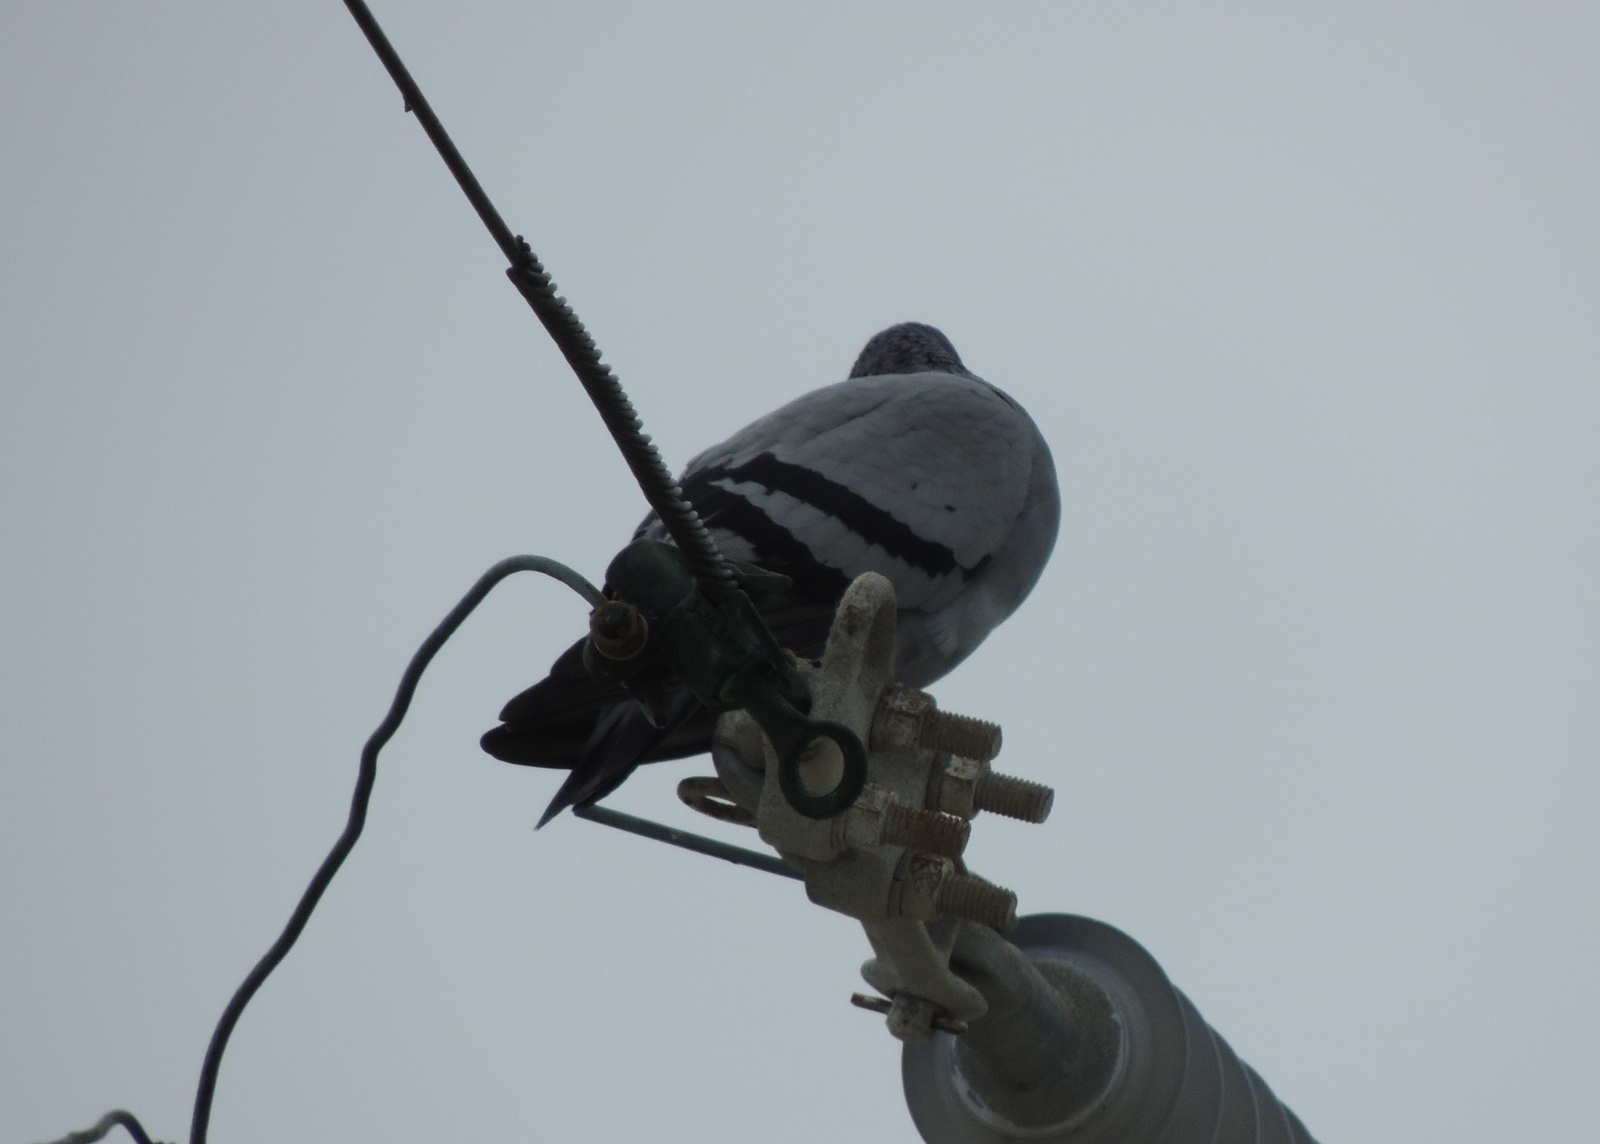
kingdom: Animalia
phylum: Chordata
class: Aves
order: Columbiformes
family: Columbidae
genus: Columba
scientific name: Columba livia
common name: Rock pigeon
